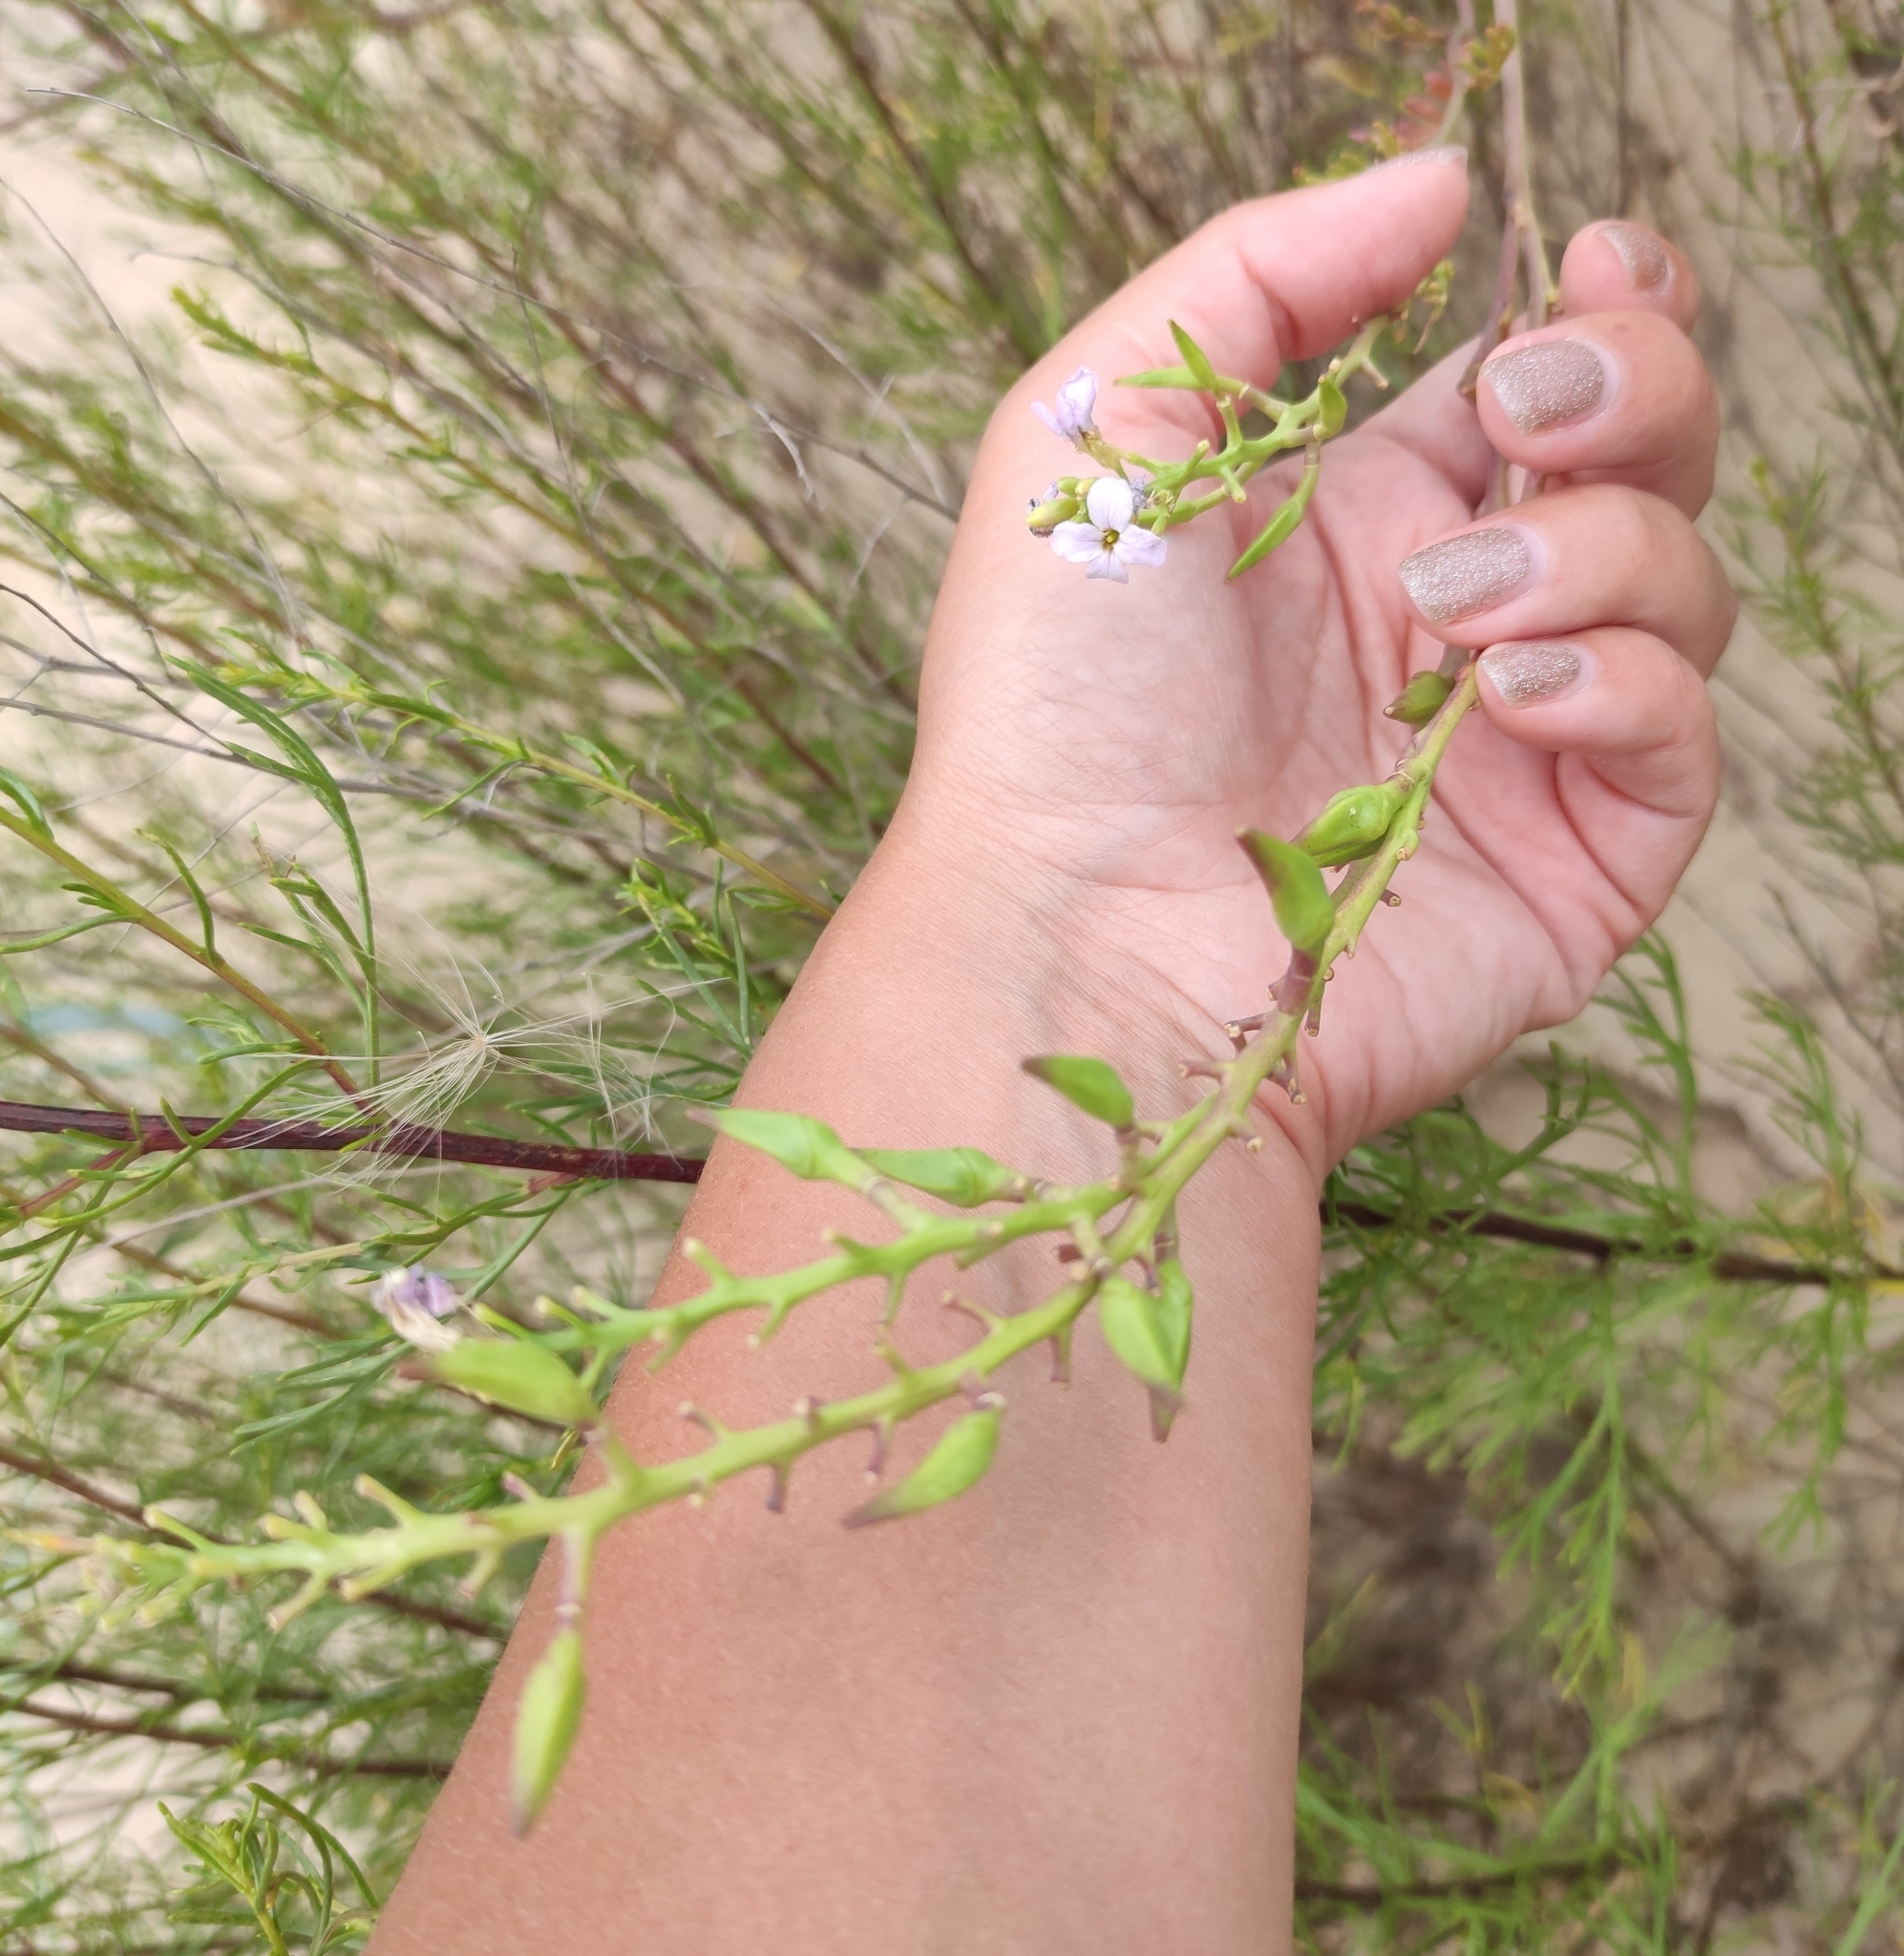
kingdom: Plantae
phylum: Tracheophyta
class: Magnoliopsida
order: Brassicales
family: Brassicaceae
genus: Cakile
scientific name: Cakile maritima
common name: Sea rocket
